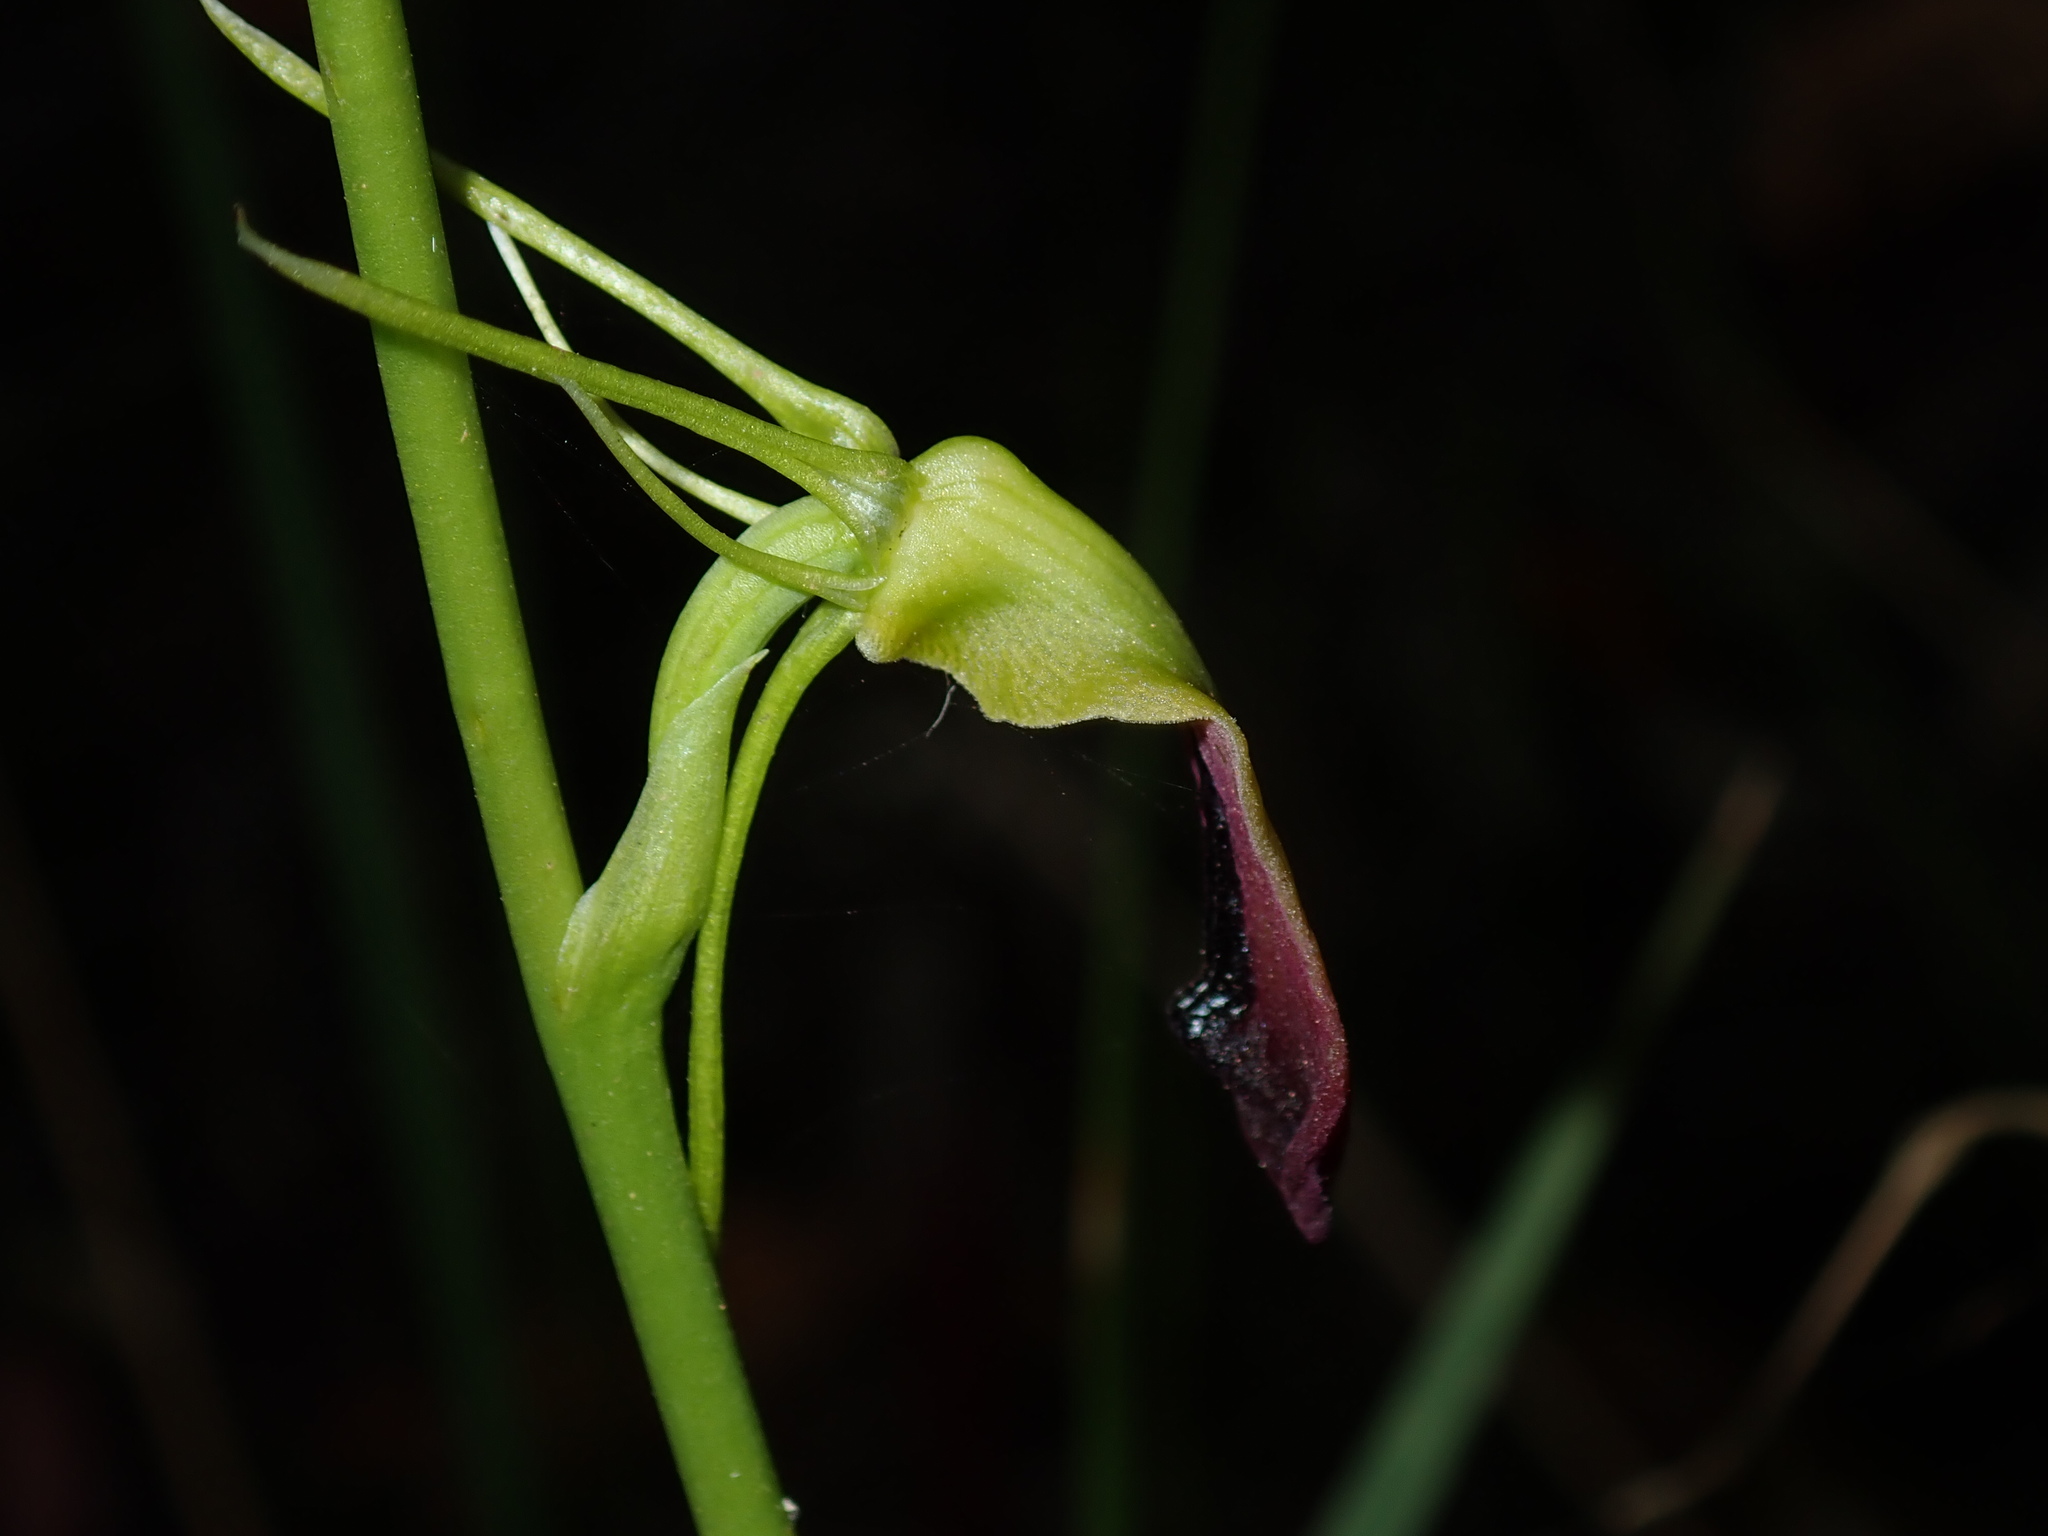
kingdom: Plantae
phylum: Tracheophyta
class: Liliopsida
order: Asparagales
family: Orchidaceae
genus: Cryptostylis
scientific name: Cryptostylis subulata
